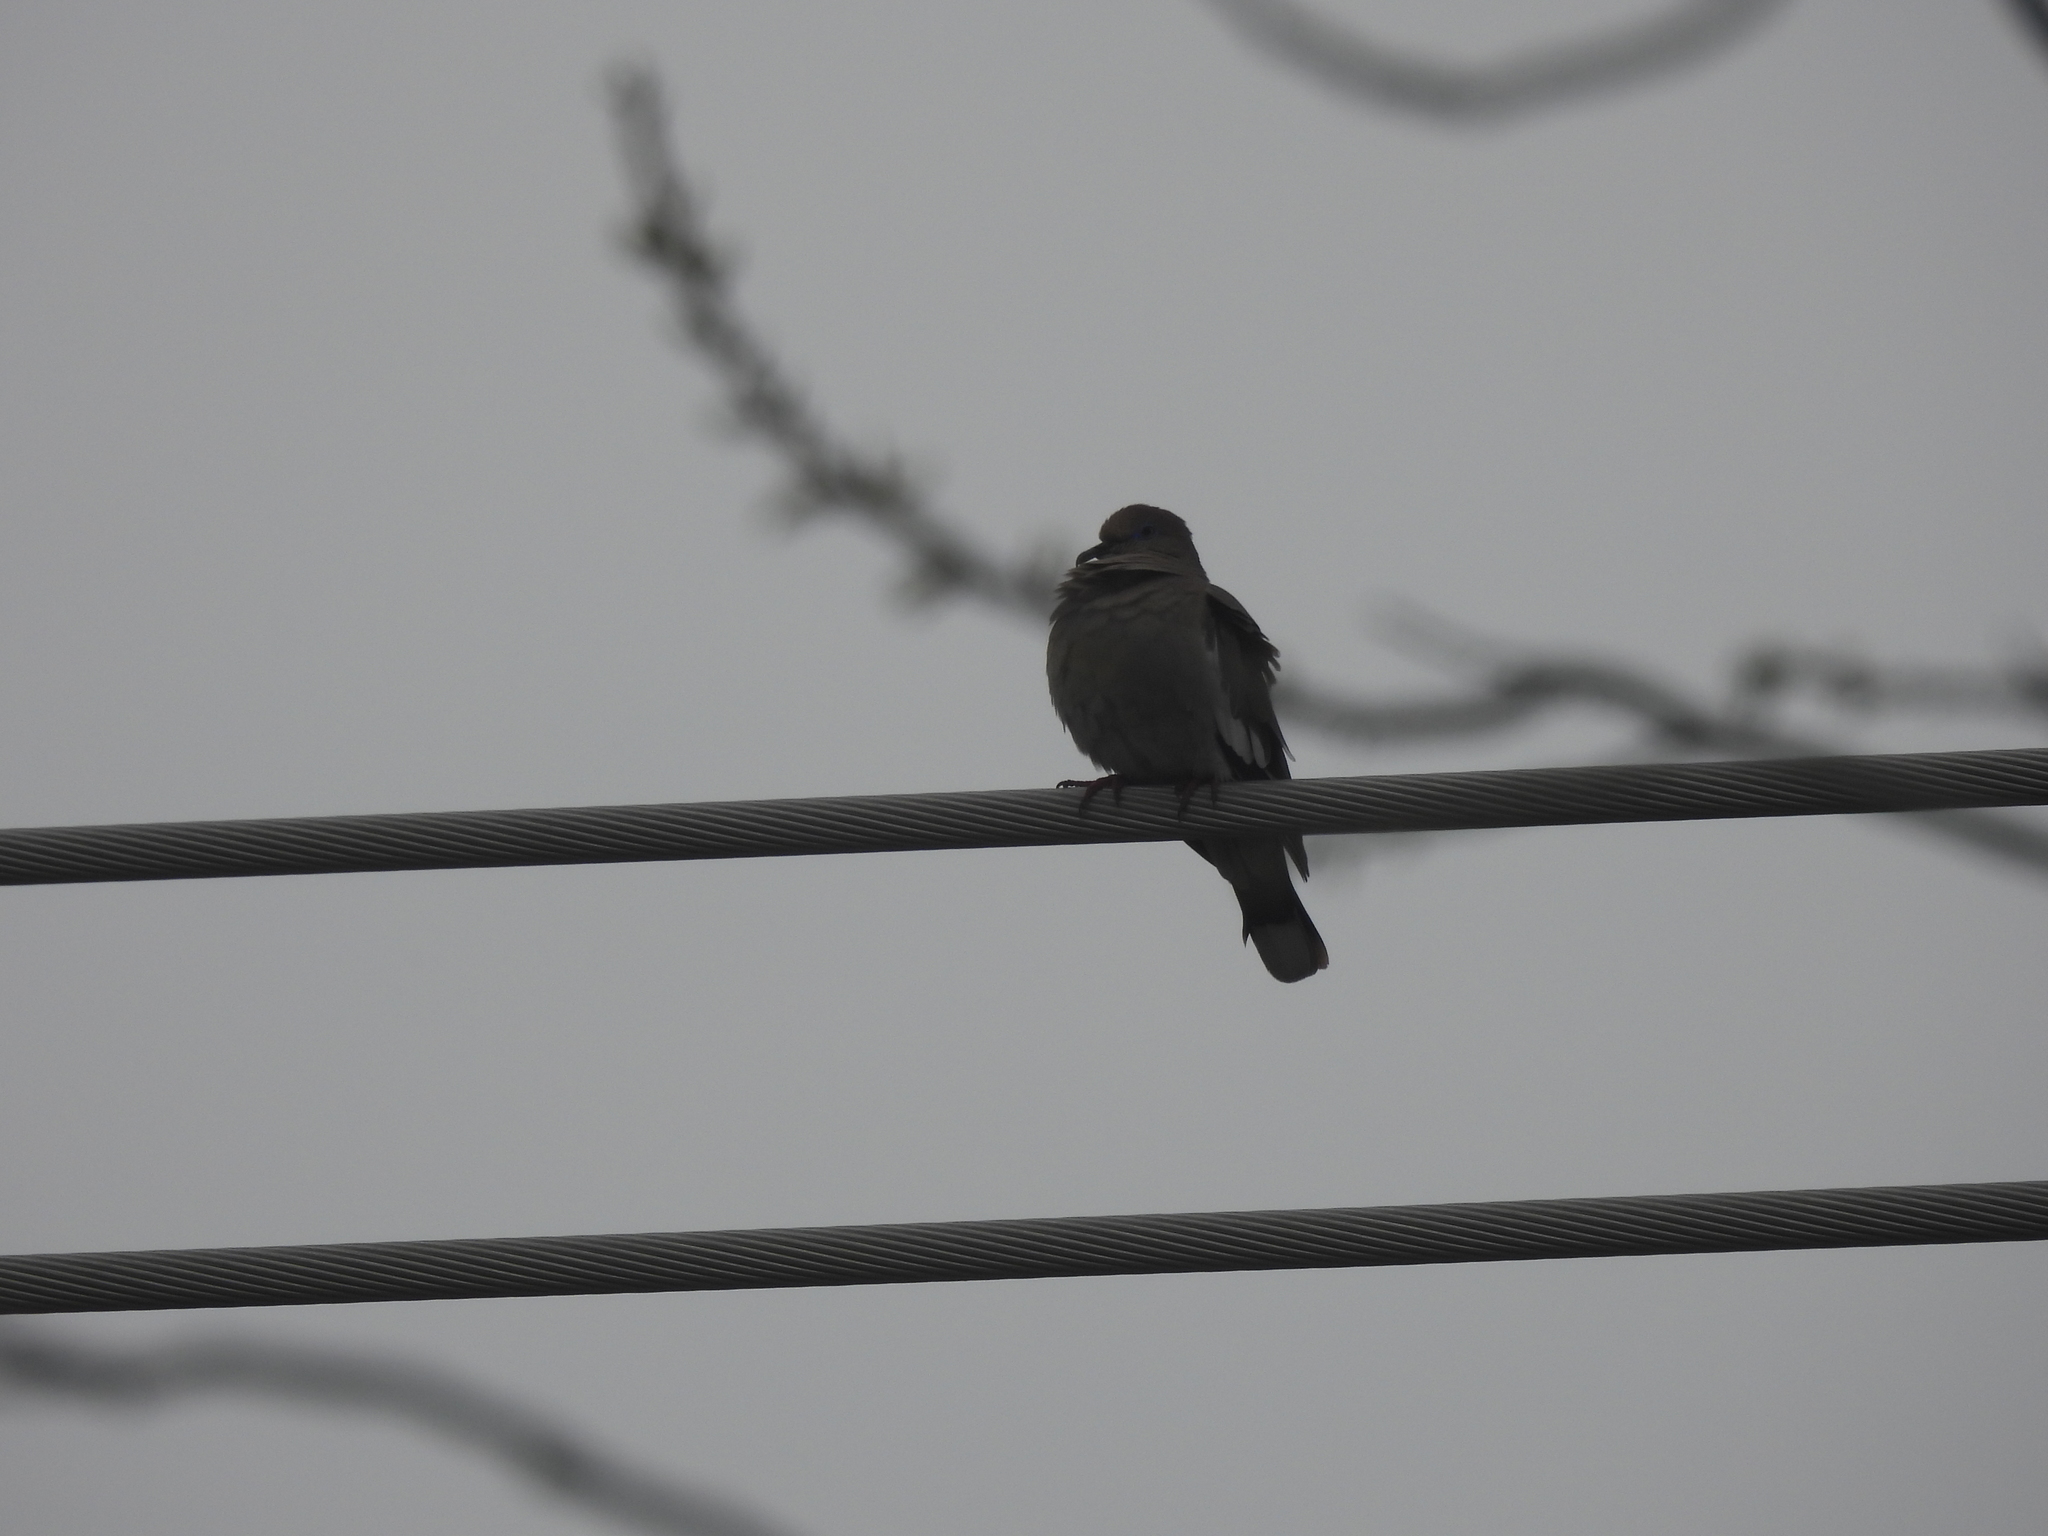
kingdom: Animalia
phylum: Chordata
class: Aves
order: Columbiformes
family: Columbidae
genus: Zenaida
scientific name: Zenaida asiatica
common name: White-winged dove
